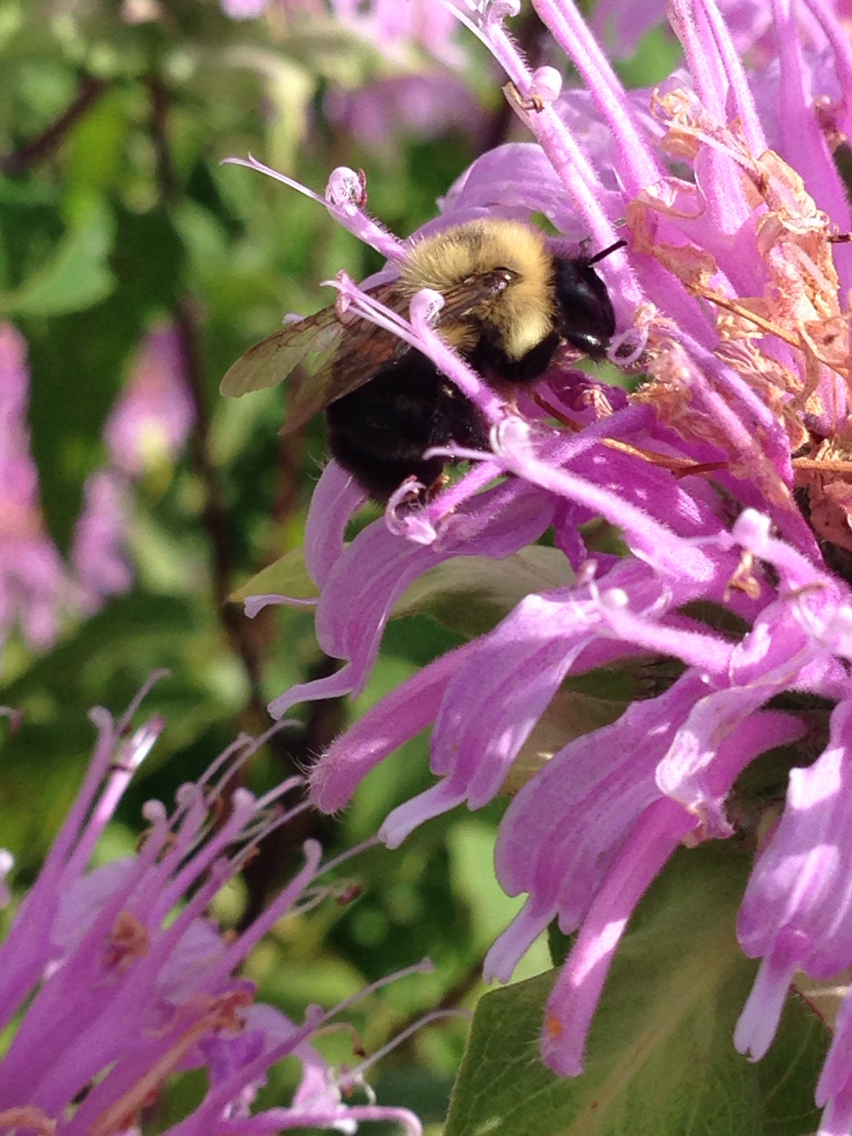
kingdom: Animalia
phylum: Arthropoda
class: Insecta
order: Hymenoptera
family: Apidae
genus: Bombus
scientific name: Bombus impatiens
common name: Common eastern bumble bee
